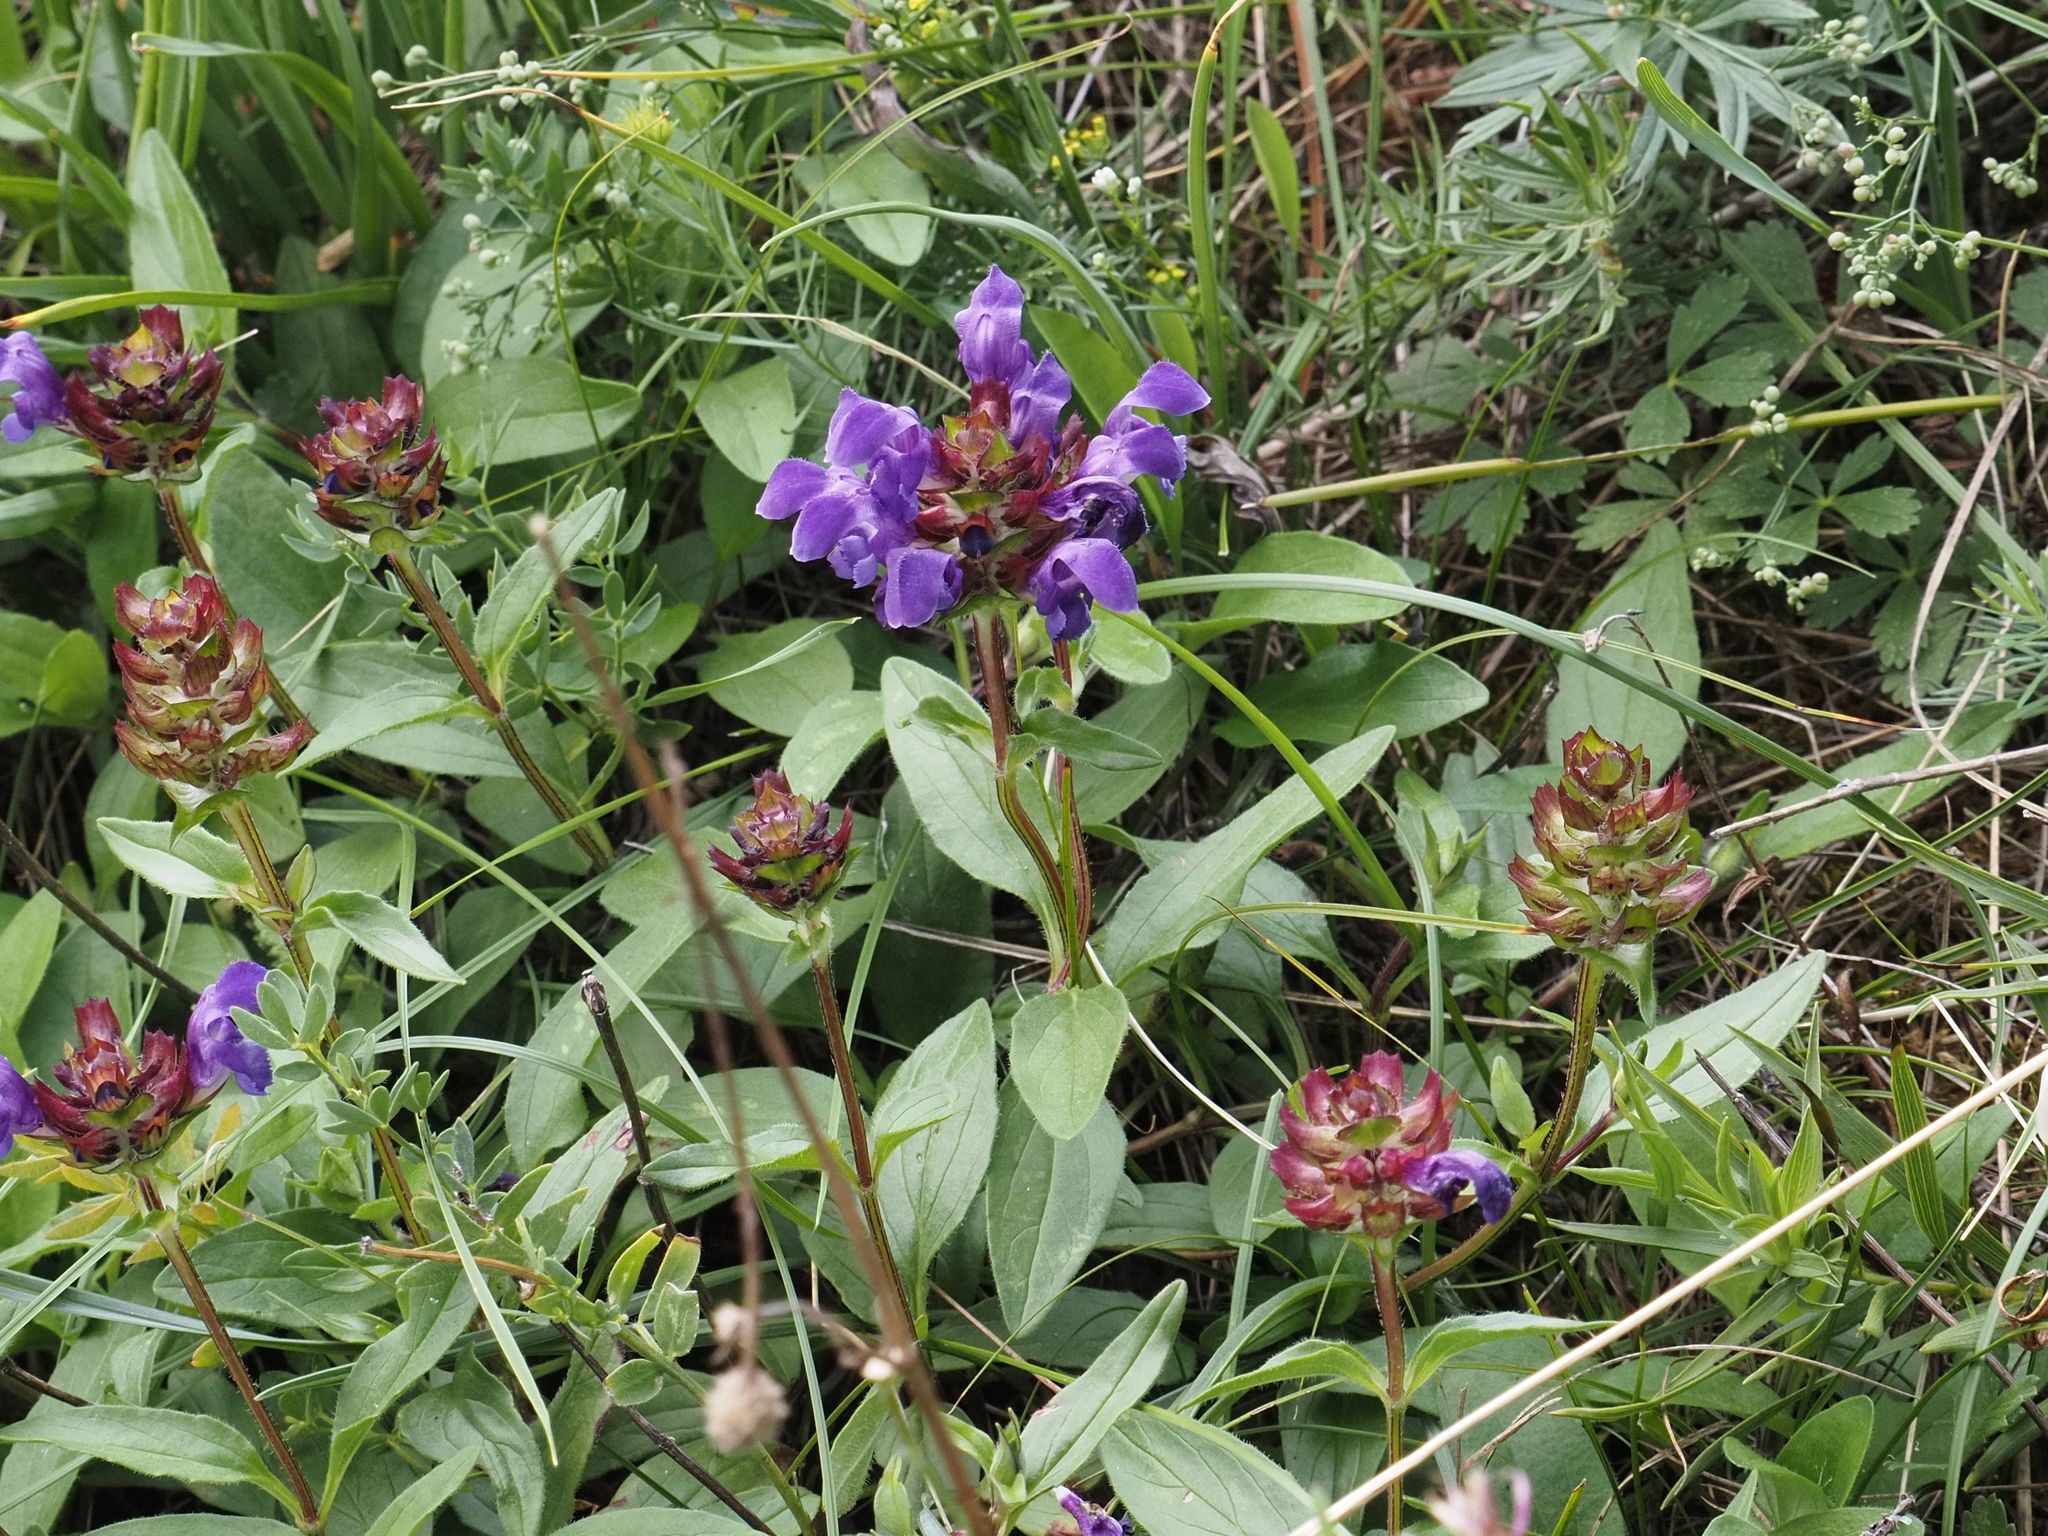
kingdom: Plantae
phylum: Tracheophyta
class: Magnoliopsida
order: Lamiales
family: Lamiaceae
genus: Prunella
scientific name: Prunella grandiflora
